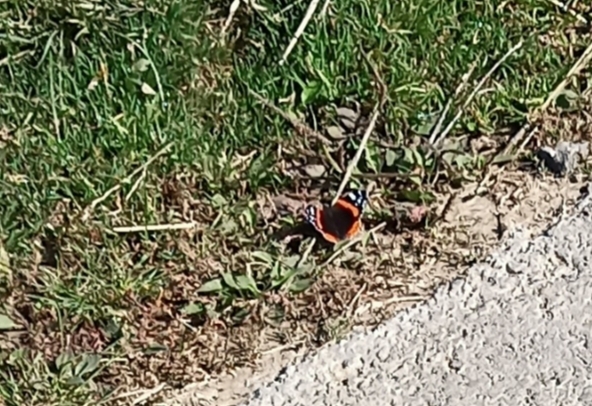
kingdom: Animalia
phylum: Arthropoda
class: Insecta
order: Lepidoptera
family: Nymphalidae
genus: Vanessa
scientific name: Vanessa atalanta
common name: Red admiral
